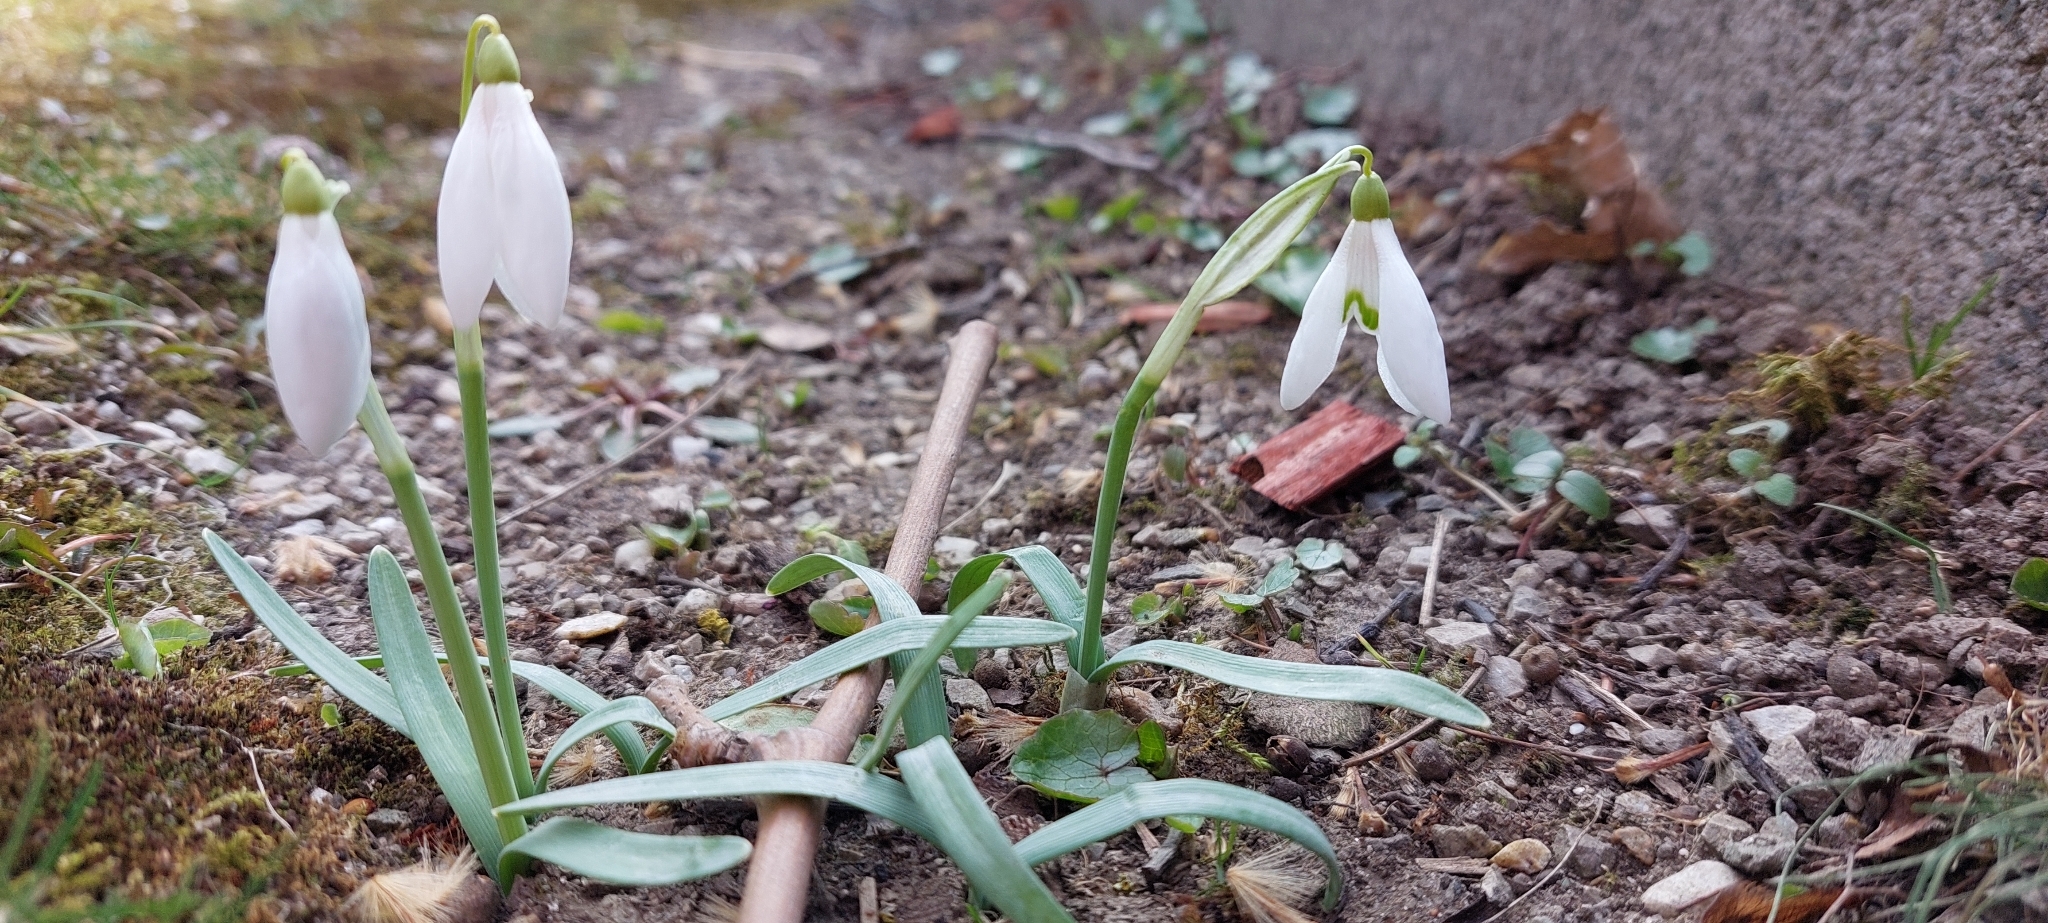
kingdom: Plantae
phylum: Tracheophyta
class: Liliopsida
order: Asparagales
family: Amaryllidaceae
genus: Galanthus
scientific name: Galanthus nivalis
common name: Snowdrop
